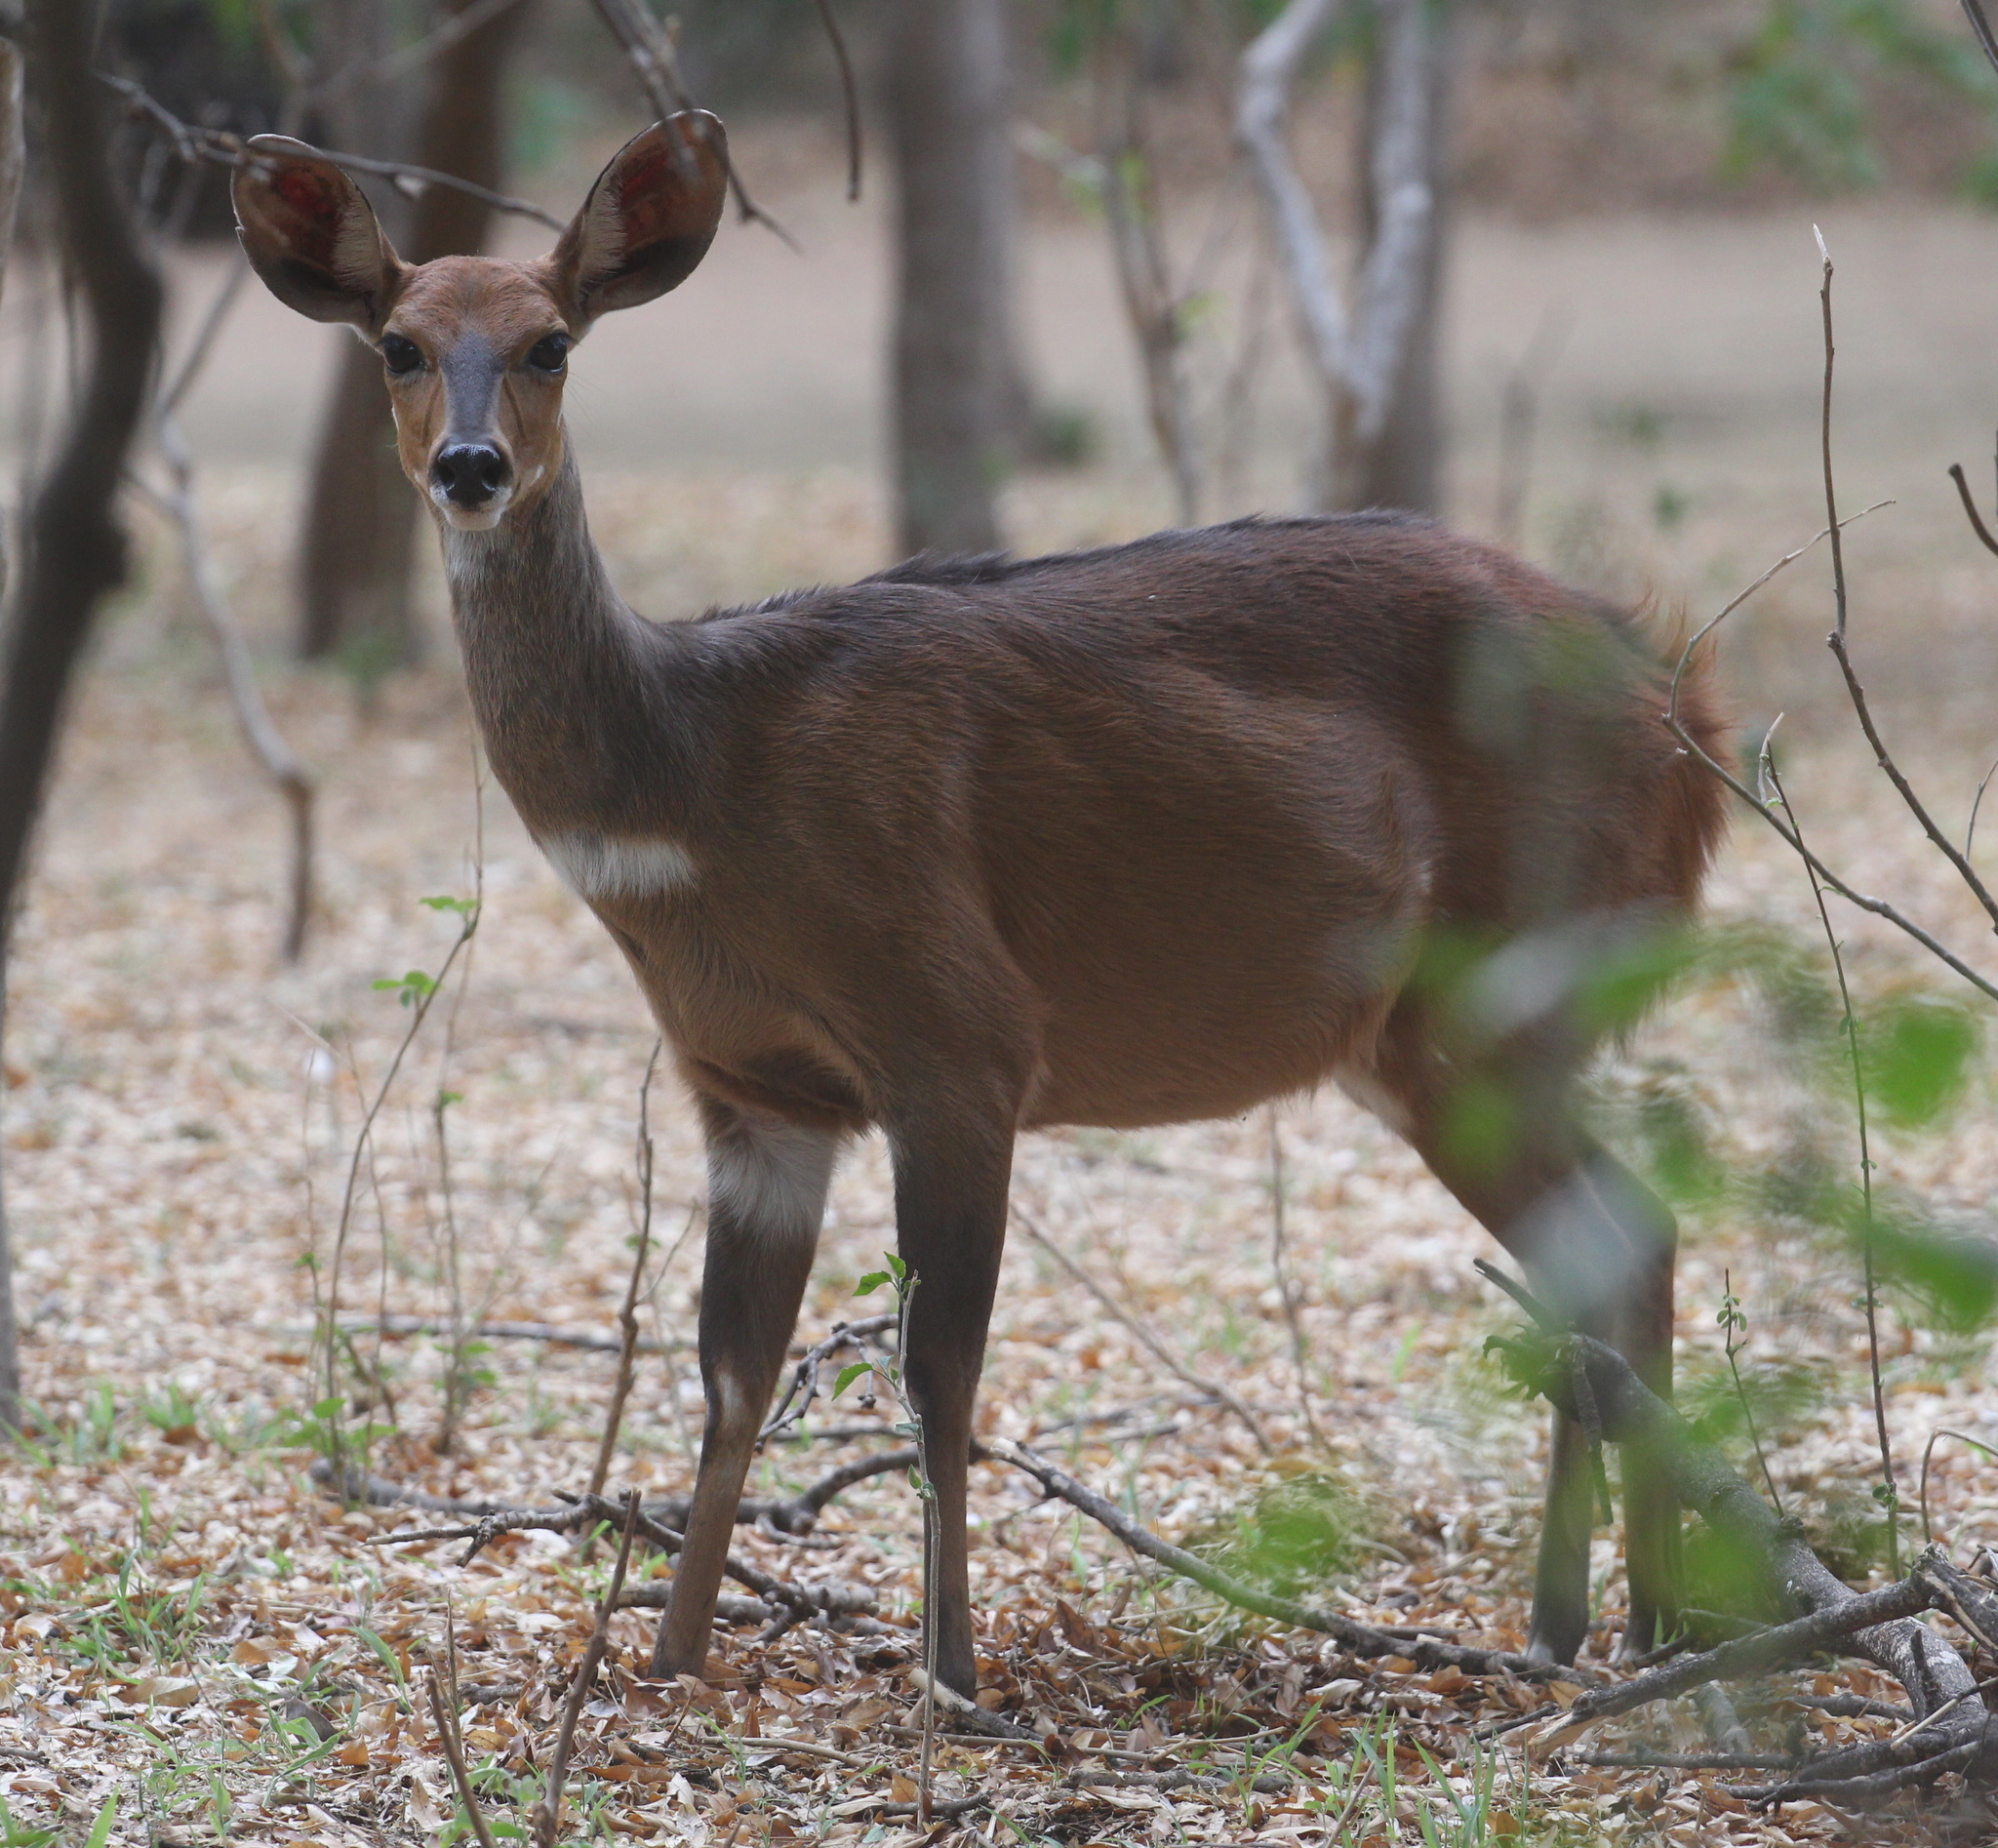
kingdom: Animalia
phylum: Chordata
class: Mammalia
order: Artiodactyla
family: Bovidae
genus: Tragelaphus
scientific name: Tragelaphus scriptus
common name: Bushbuck
